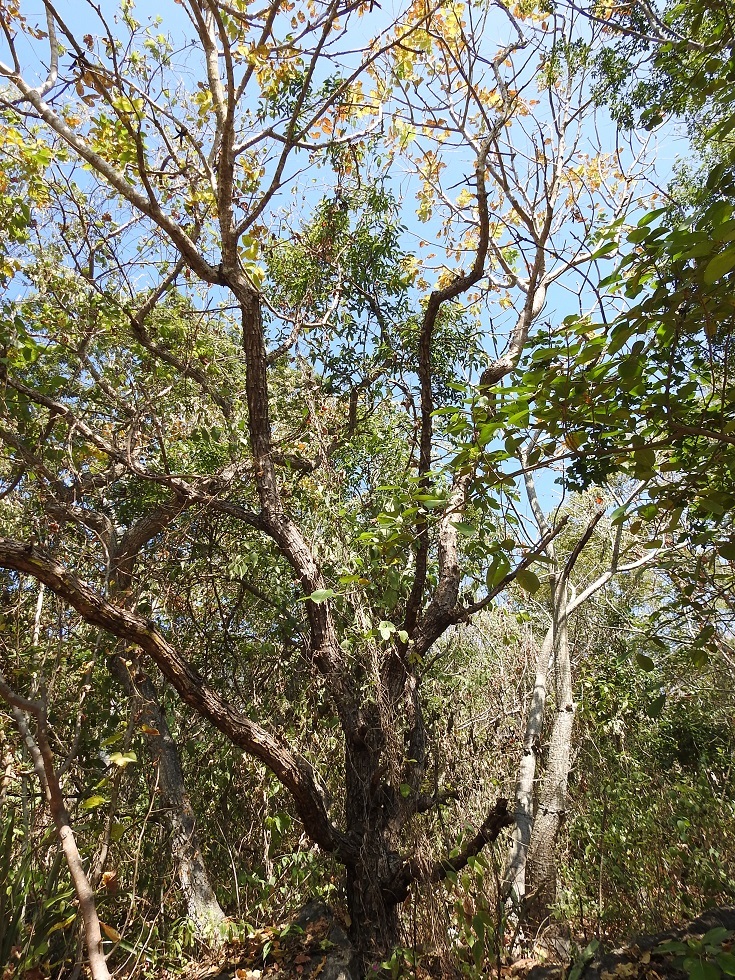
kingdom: Plantae
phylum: Tracheophyta
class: Magnoliopsida
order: Sapindales
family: Meliaceae
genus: Cedrela
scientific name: Cedrela salvadorensis
